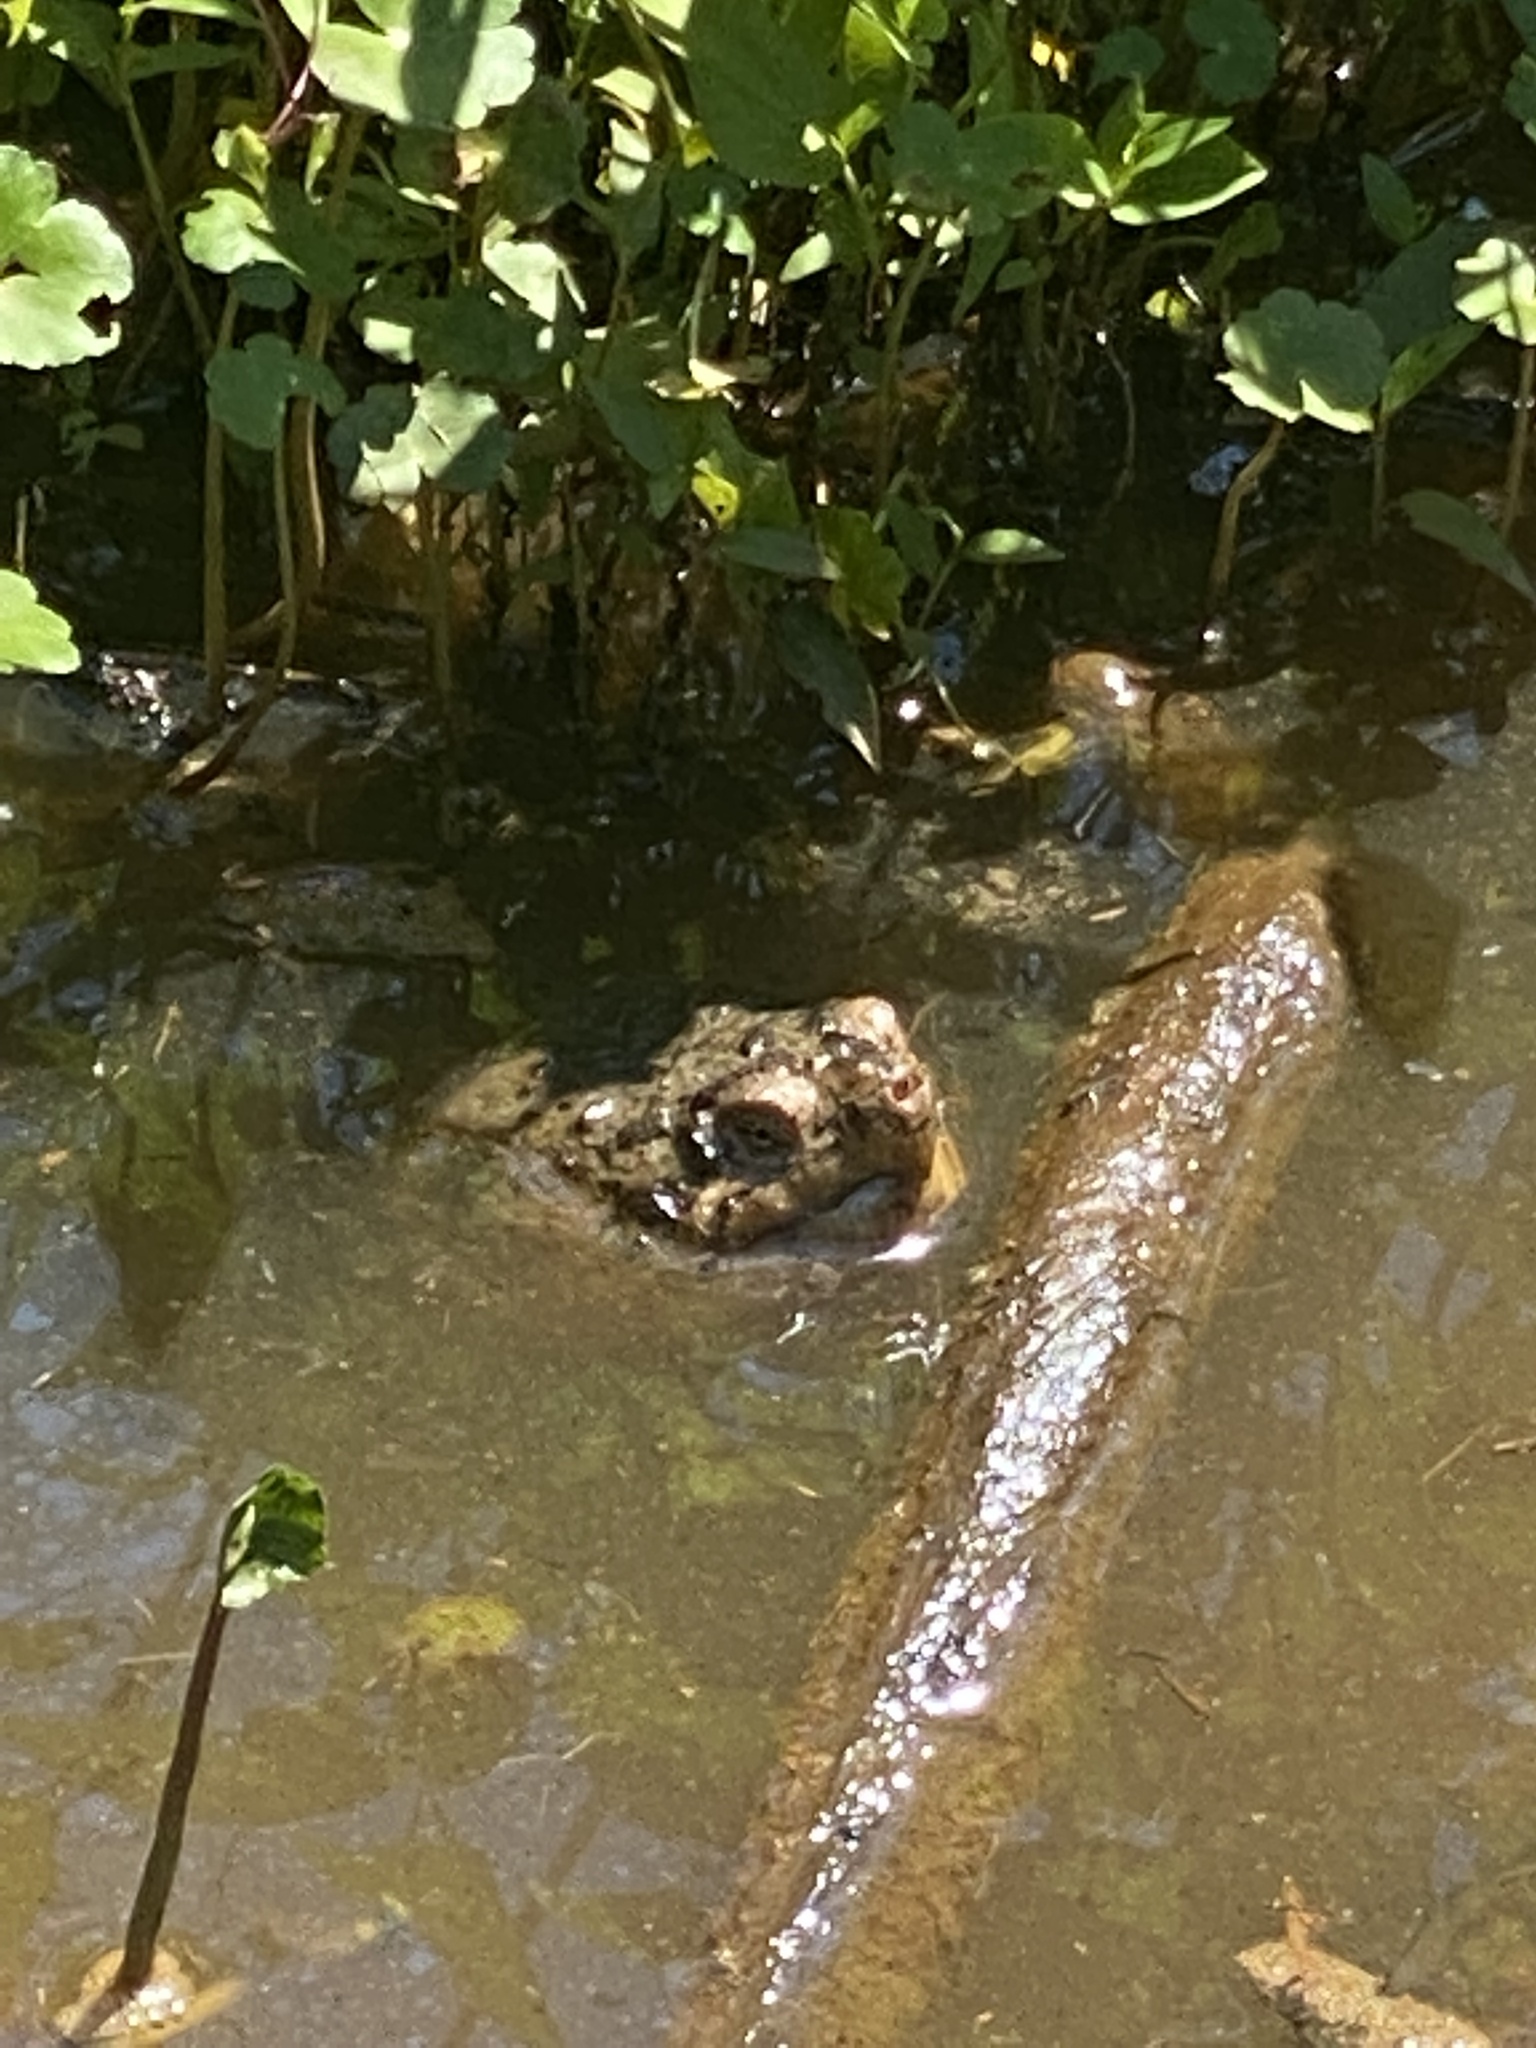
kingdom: Animalia
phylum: Chordata
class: Testudines
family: Chelydridae
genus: Chelydra
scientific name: Chelydra serpentina
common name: Common snapping turtle
